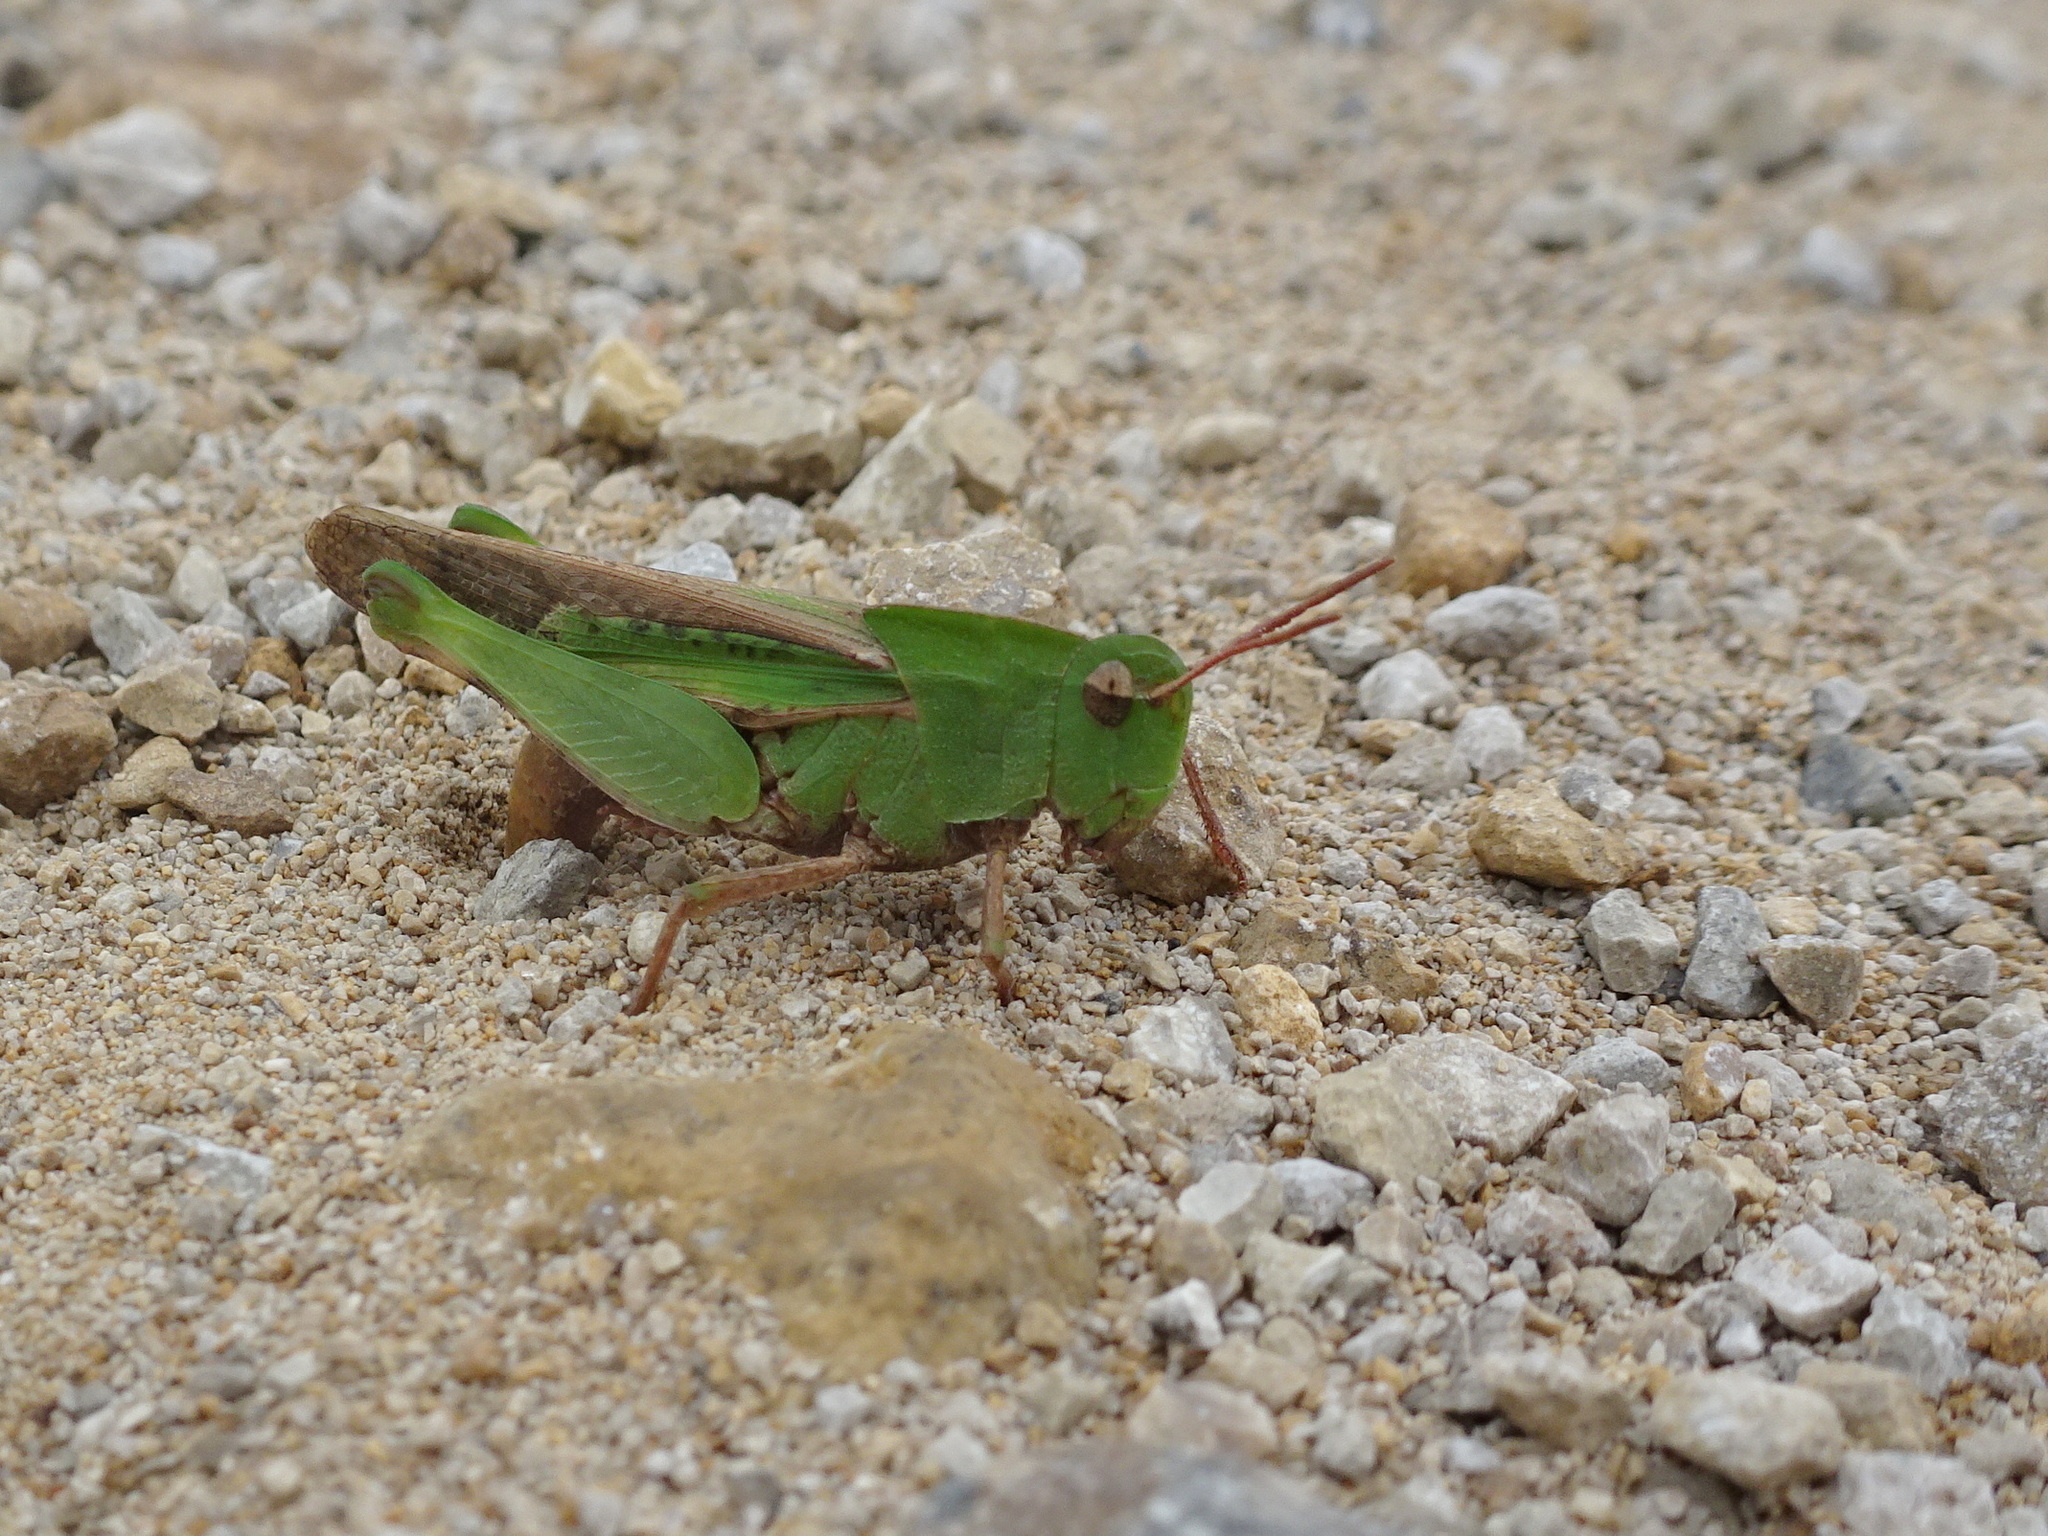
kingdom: Animalia
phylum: Arthropoda
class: Insecta
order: Orthoptera
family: Acrididae
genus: Chortophaga
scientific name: Chortophaga viridifasciata
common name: Green-striped grasshopper
